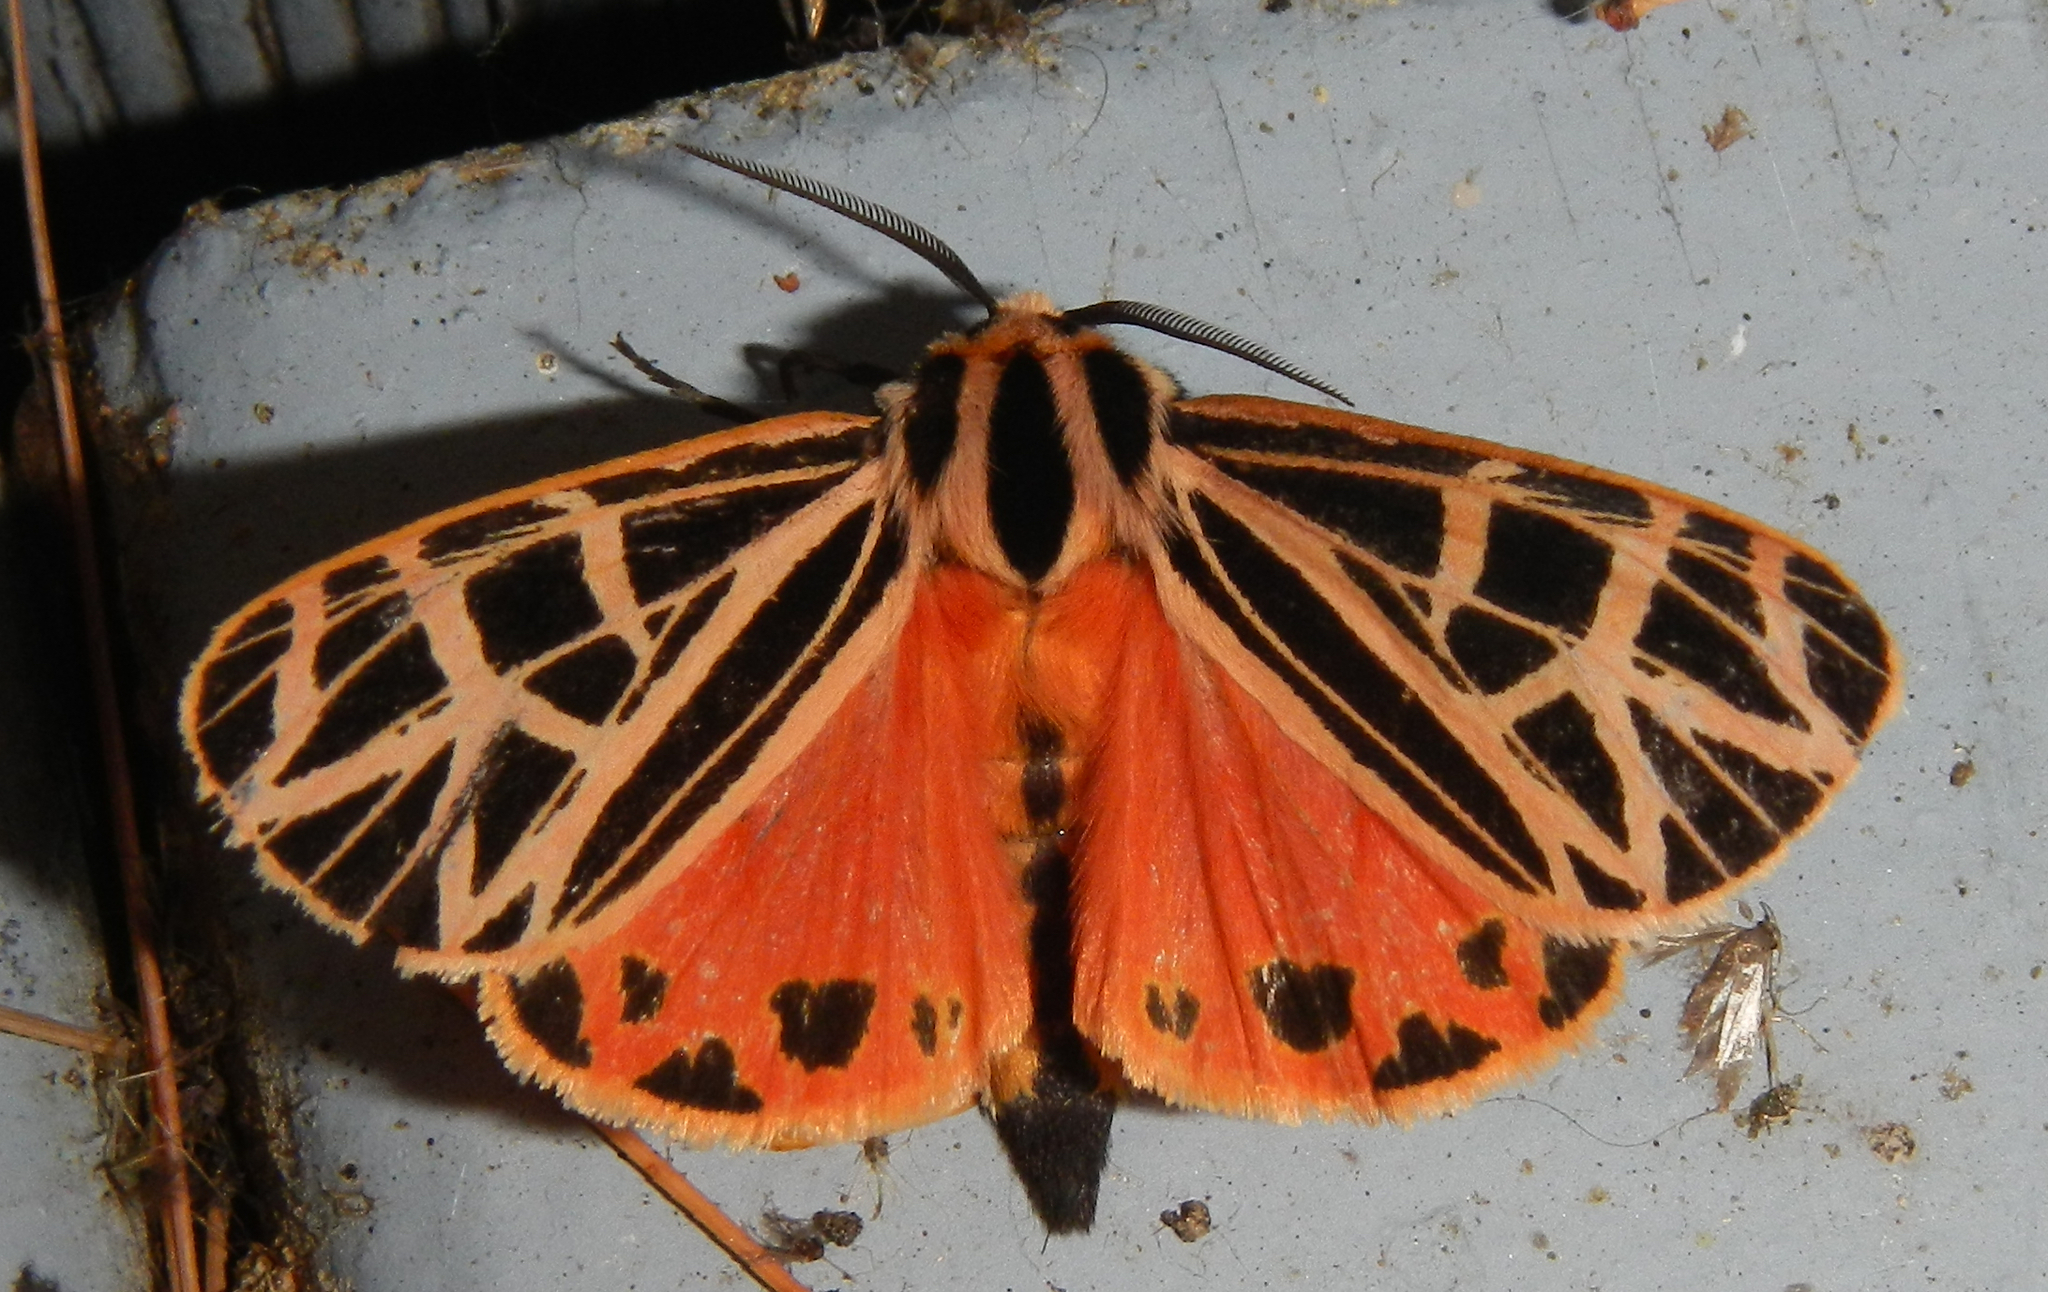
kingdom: Animalia
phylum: Arthropoda
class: Insecta
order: Lepidoptera
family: Erebidae
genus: Grammia
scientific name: Grammia parthenice
